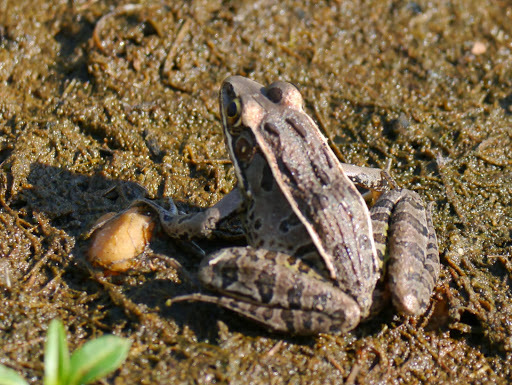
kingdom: Animalia
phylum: Chordata
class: Amphibia
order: Anura
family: Ranidae
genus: Lithobates
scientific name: Lithobates sphenocephalus
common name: Southern leopard frog
